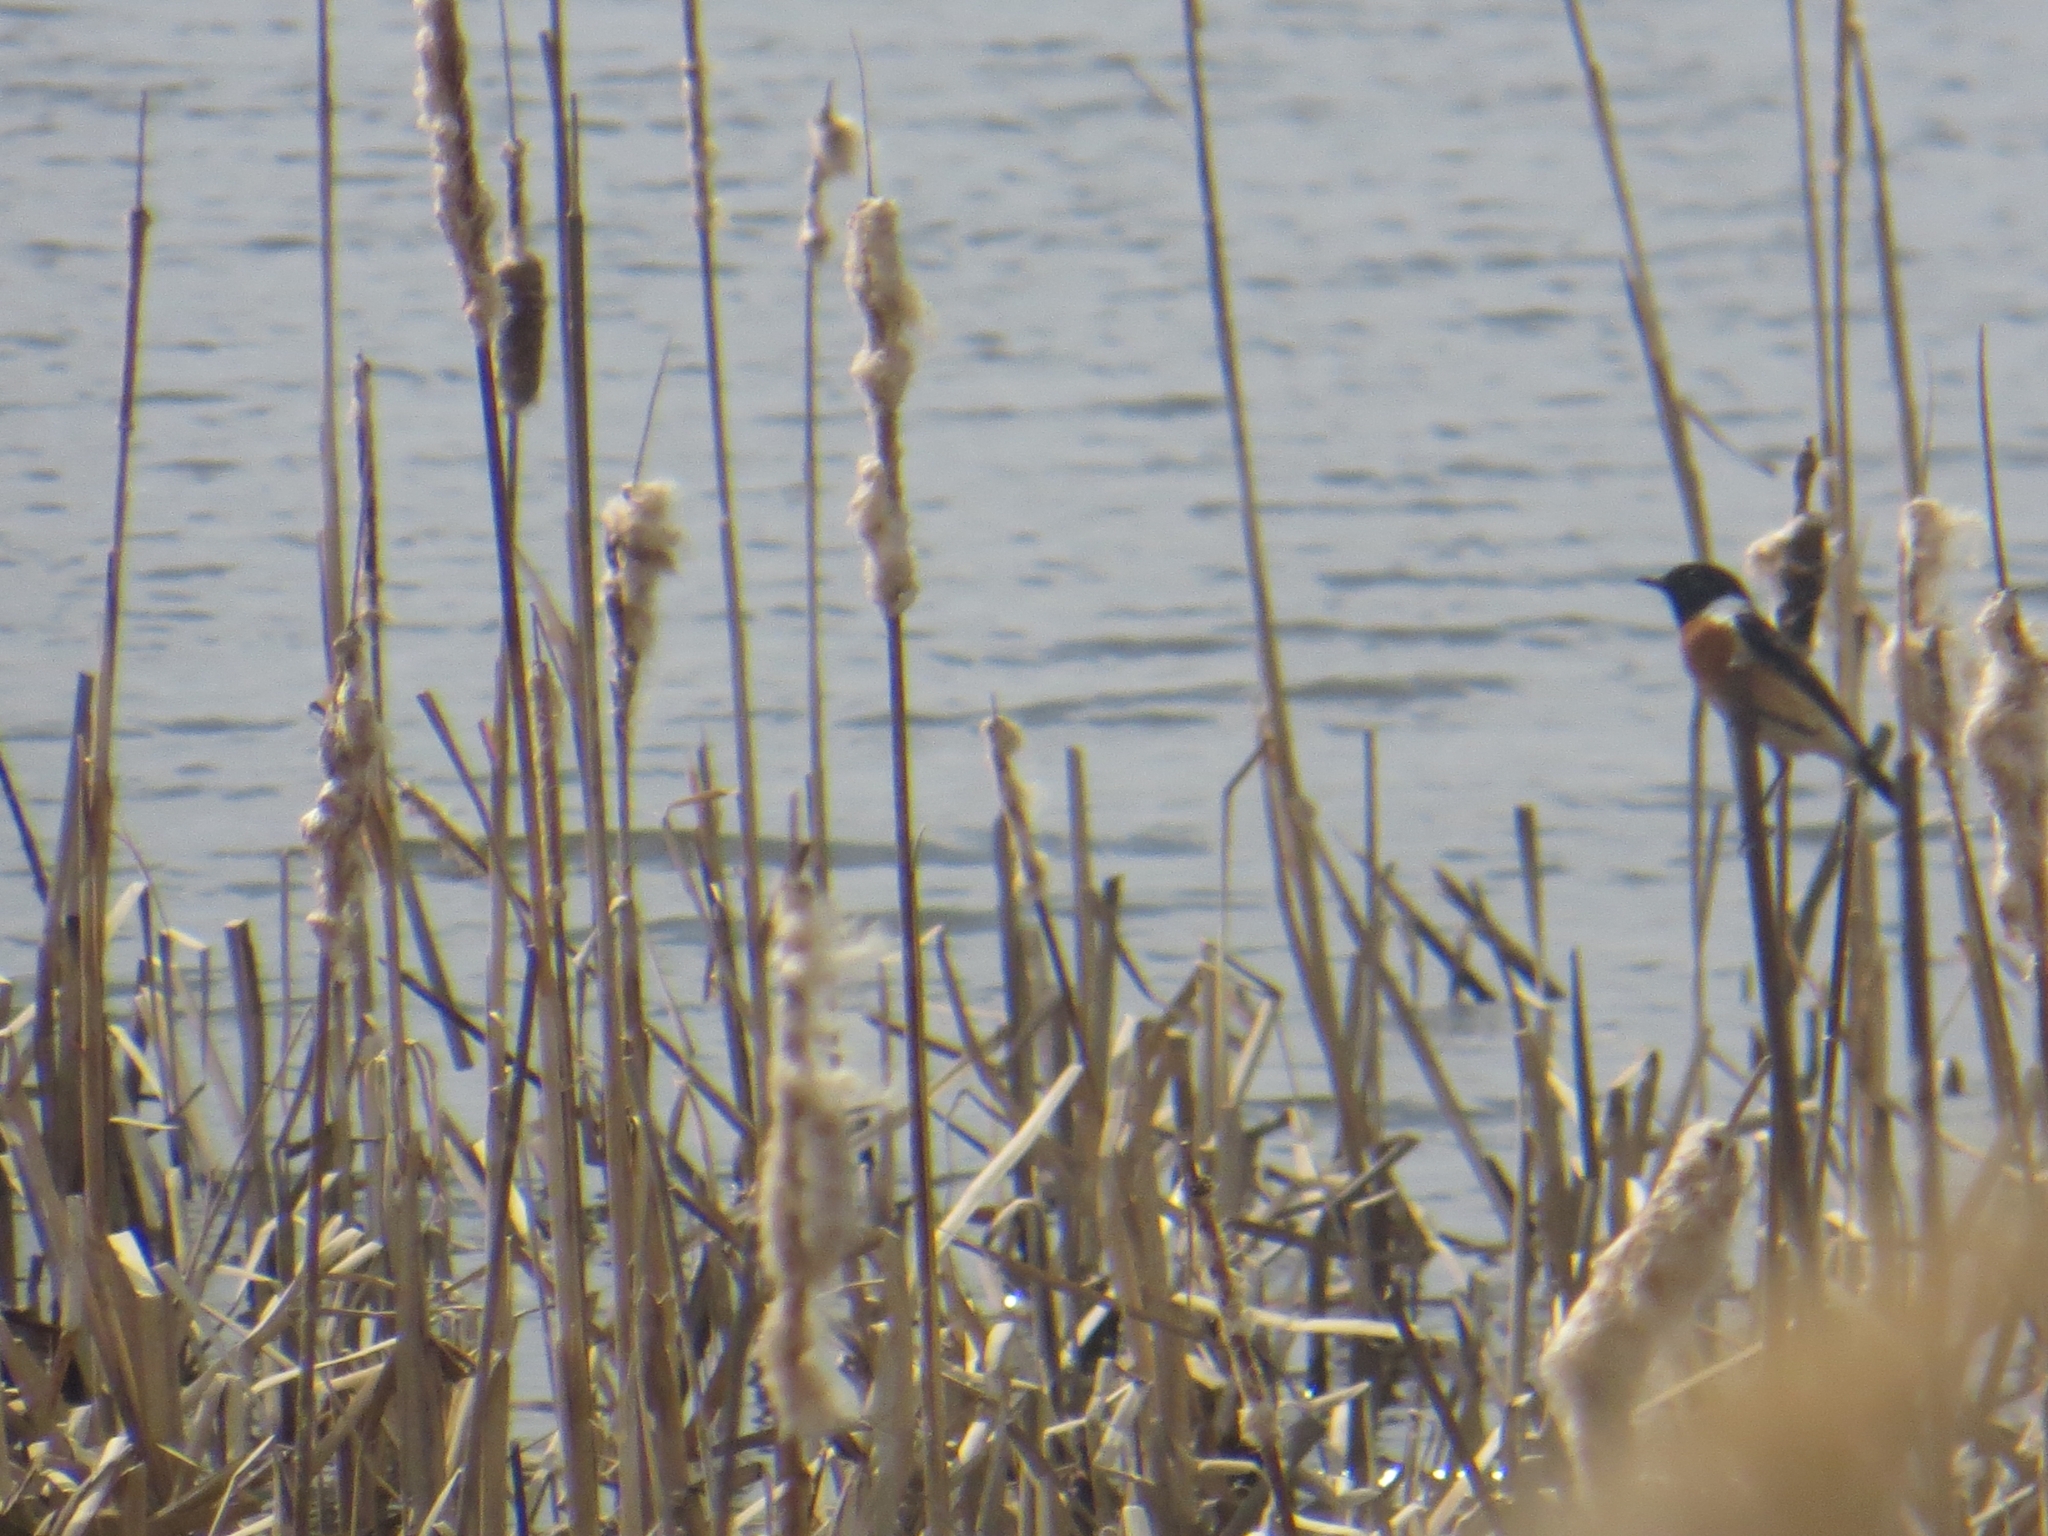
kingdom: Animalia
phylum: Chordata
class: Aves
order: Passeriformes
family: Muscicapidae
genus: Saxicola
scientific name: Saxicola maurus
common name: Siberian stonechat
